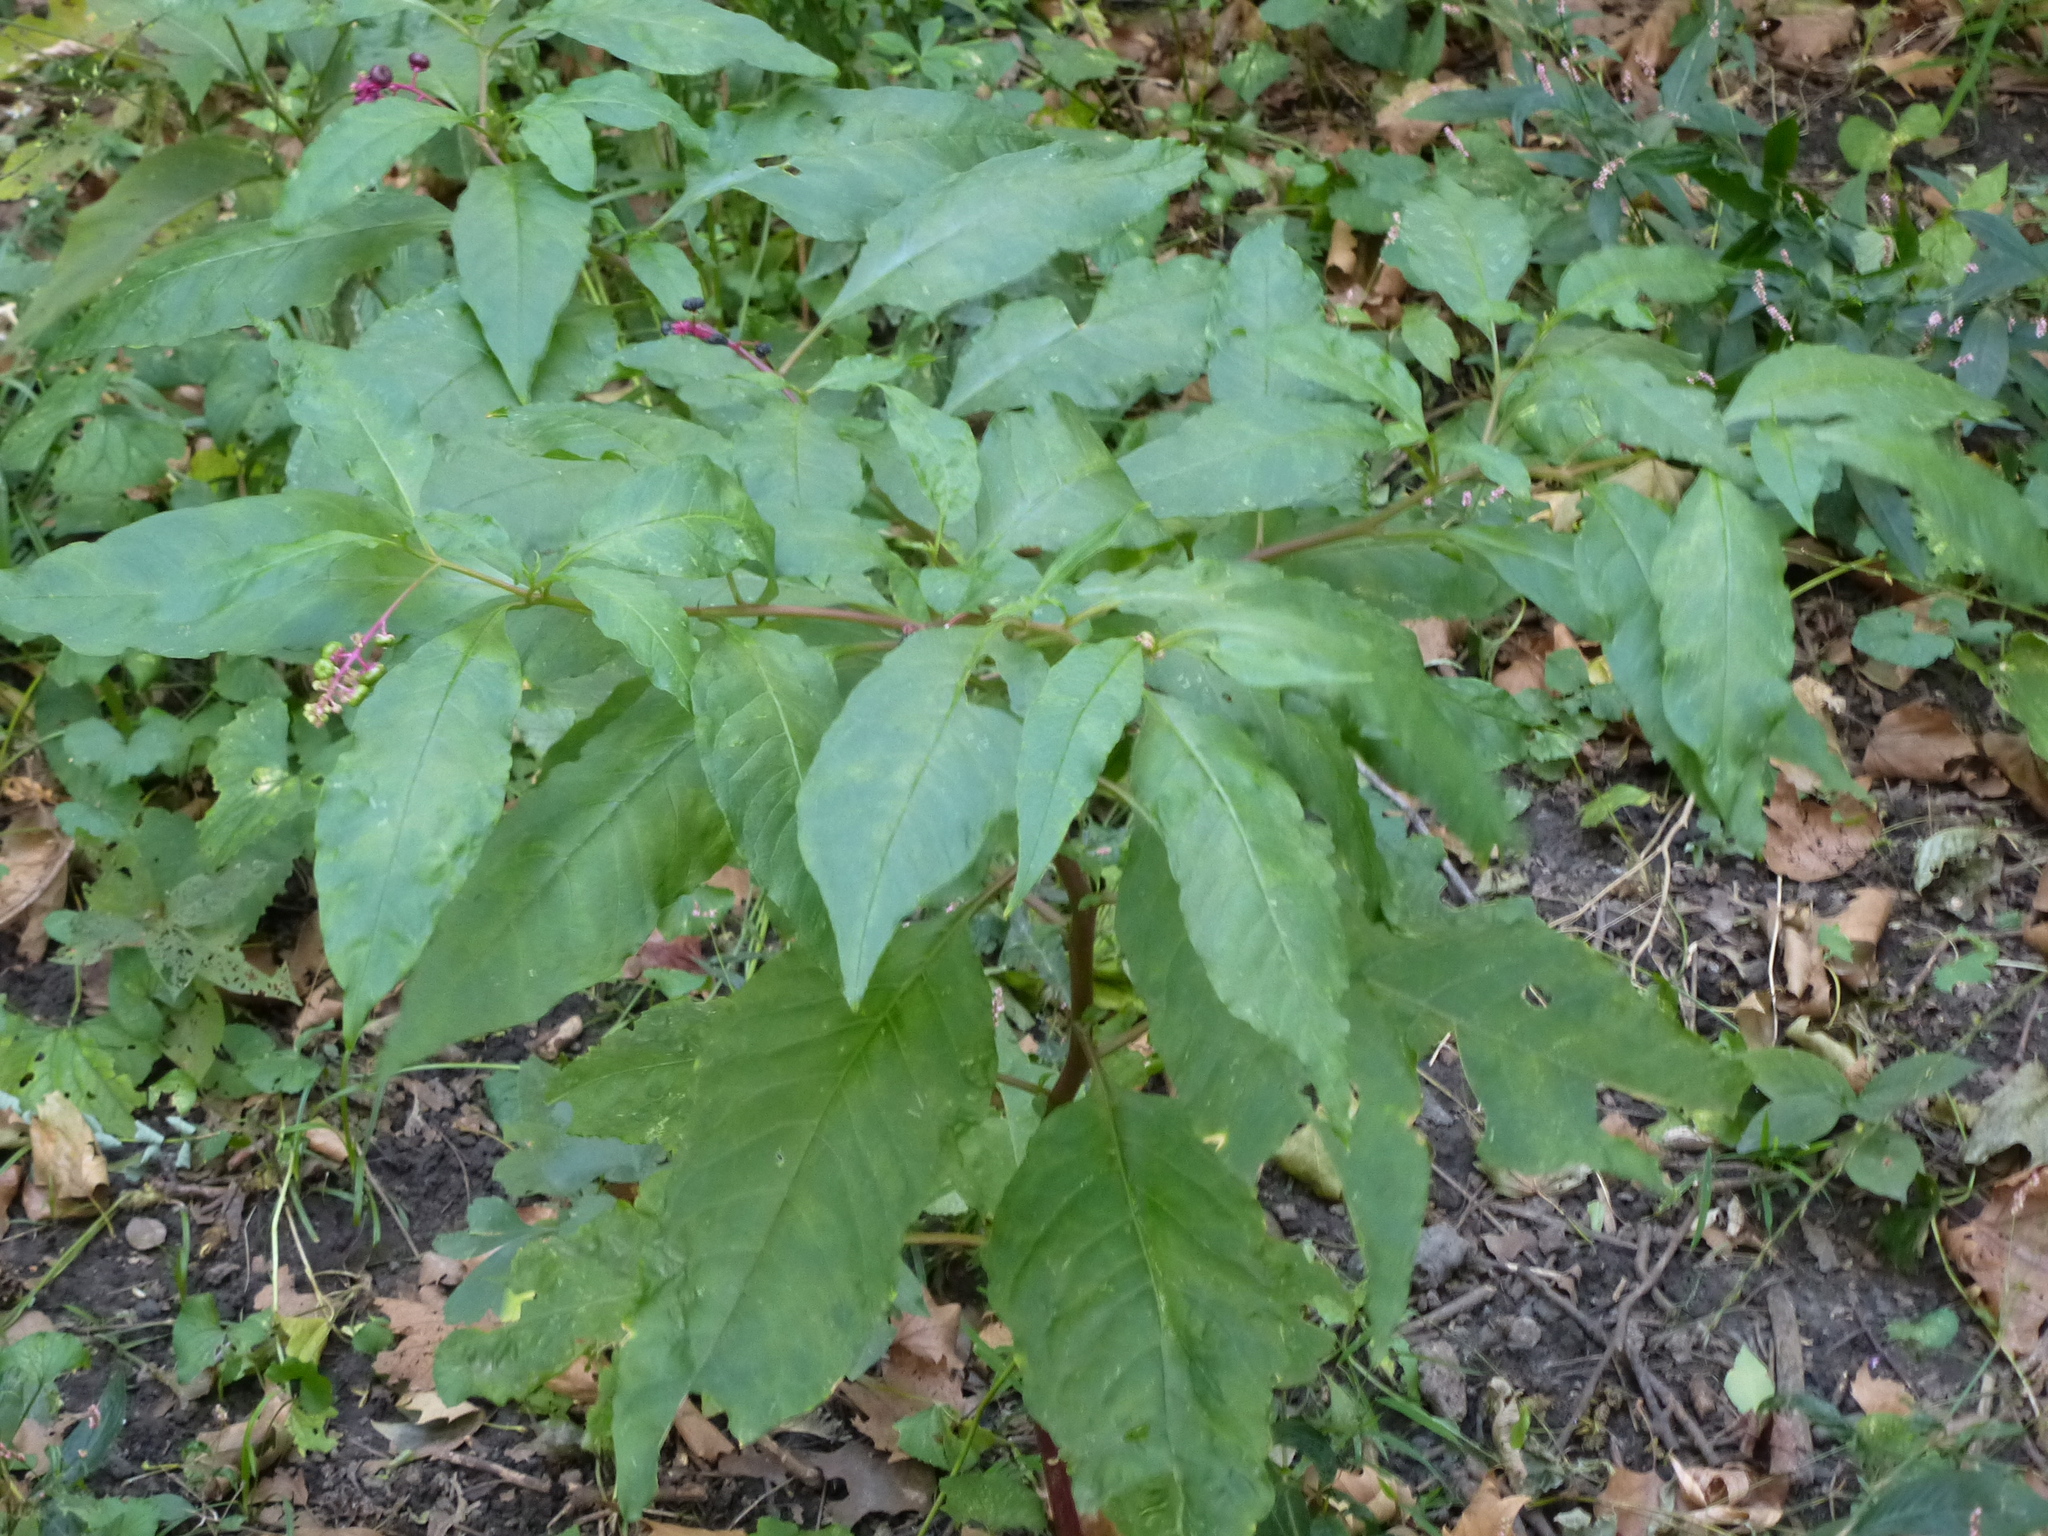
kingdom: Plantae
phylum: Tracheophyta
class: Magnoliopsida
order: Caryophyllales
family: Phytolaccaceae
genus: Phytolacca
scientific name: Phytolacca americana
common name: American pokeweed
